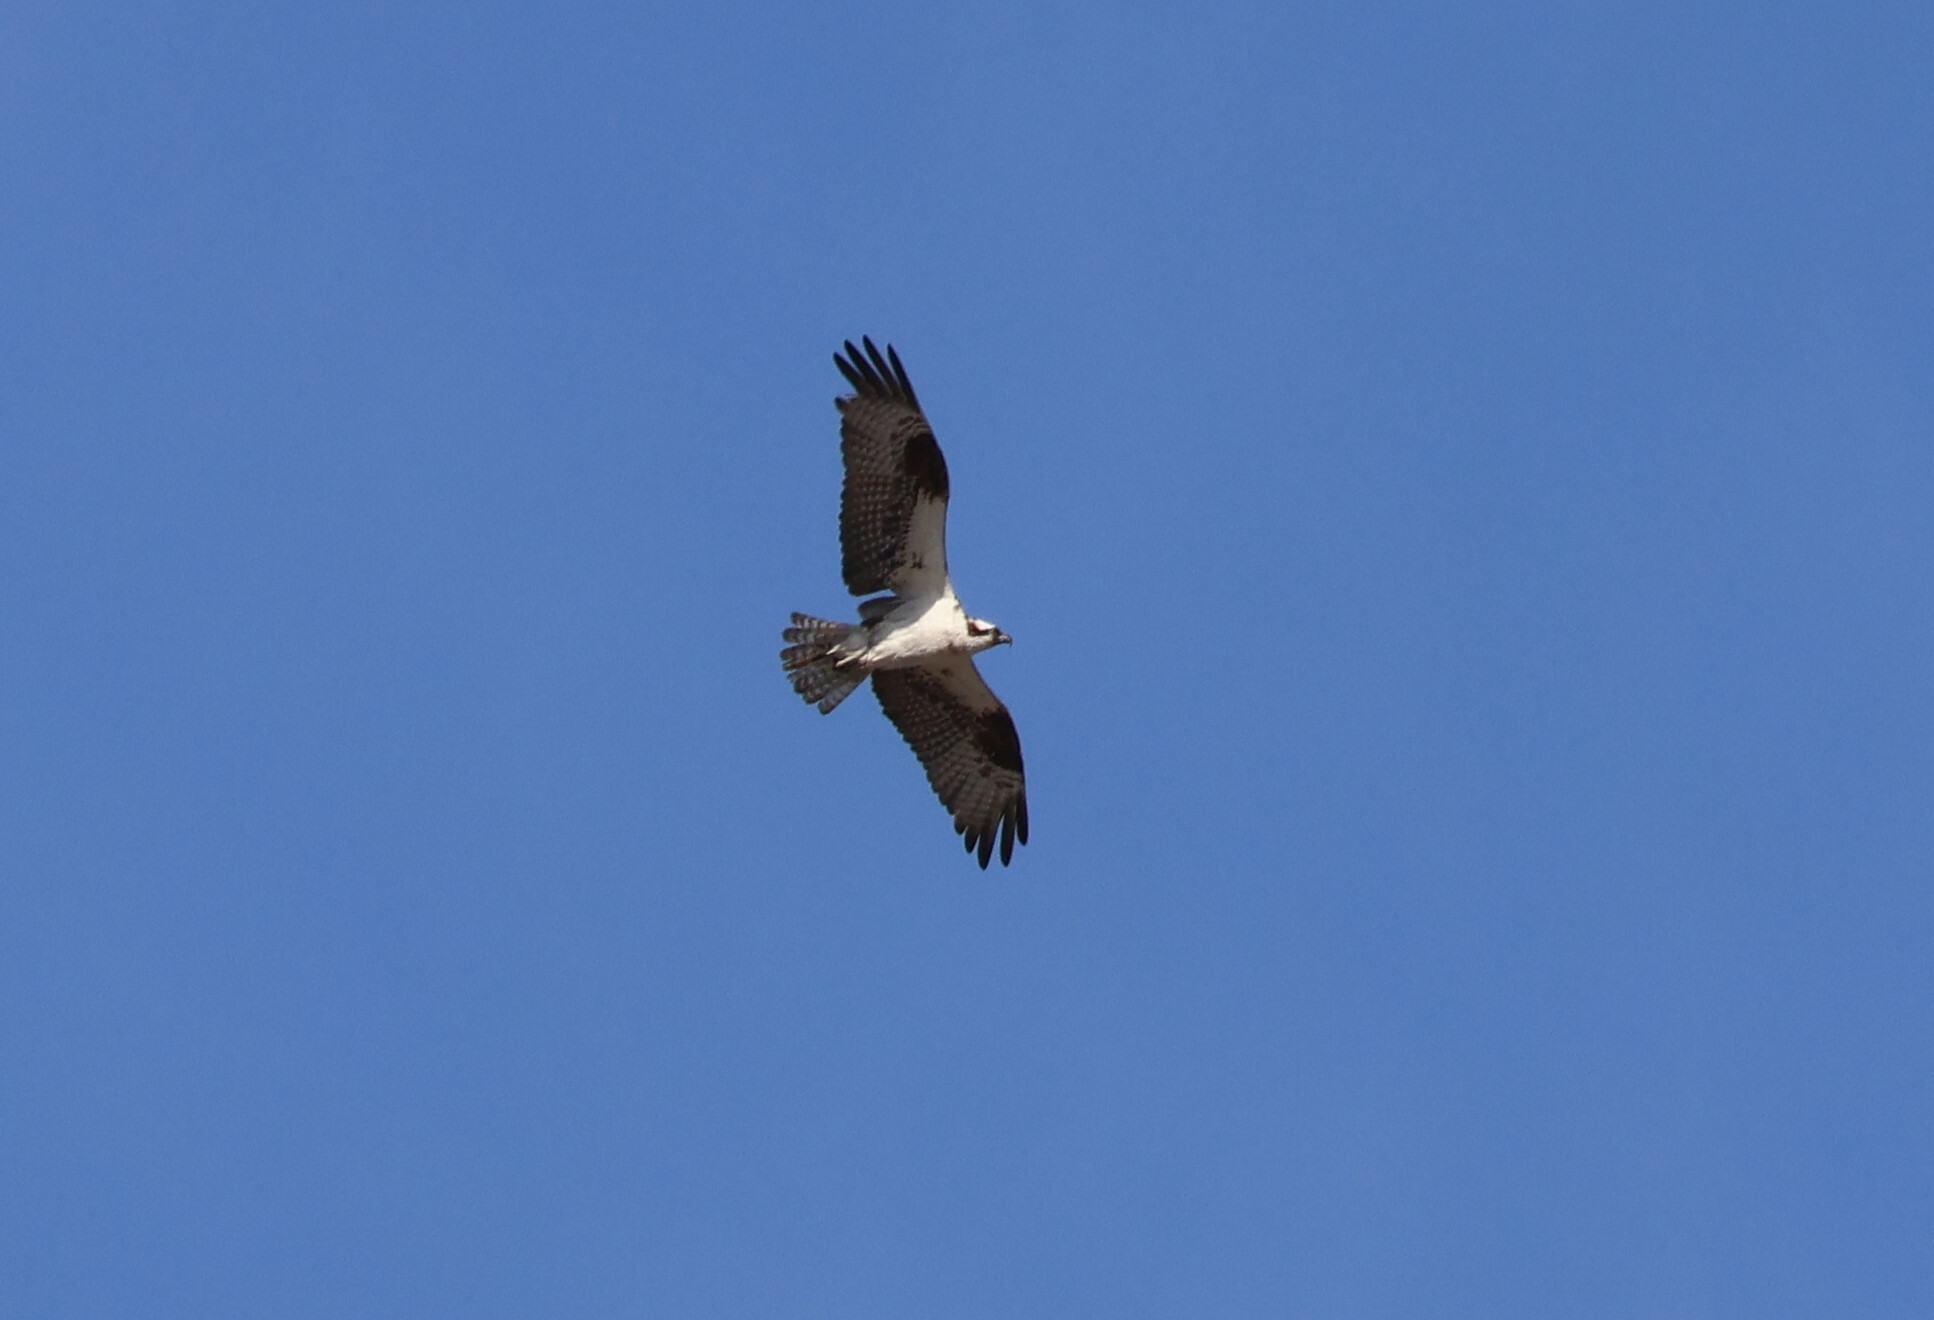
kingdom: Animalia
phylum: Chordata
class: Aves
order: Accipitriformes
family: Pandionidae
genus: Pandion
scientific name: Pandion haliaetus
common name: Osprey
